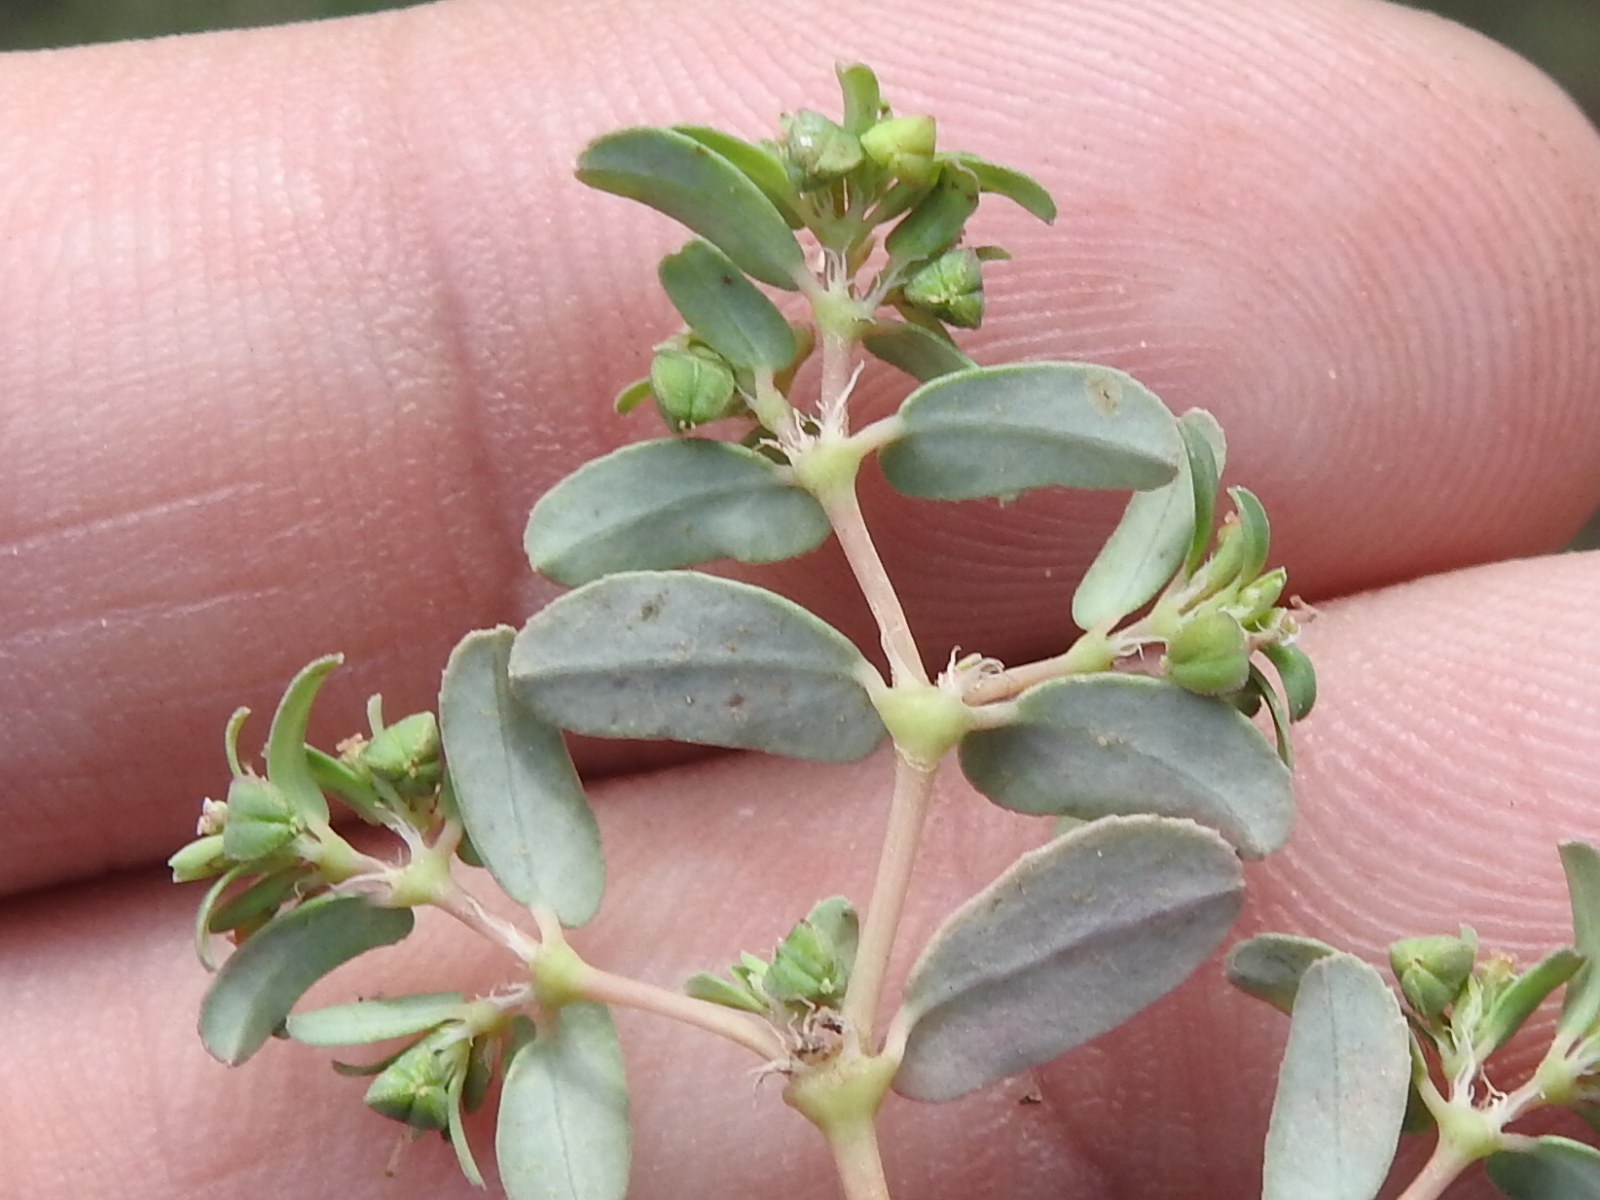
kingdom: Plantae
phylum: Tracheophyta
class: Magnoliopsida
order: Malpighiales
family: Euphorbiaceae
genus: Euphorbia
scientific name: Euphorbia glyptosperma
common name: Corrugate-seeded spurge
